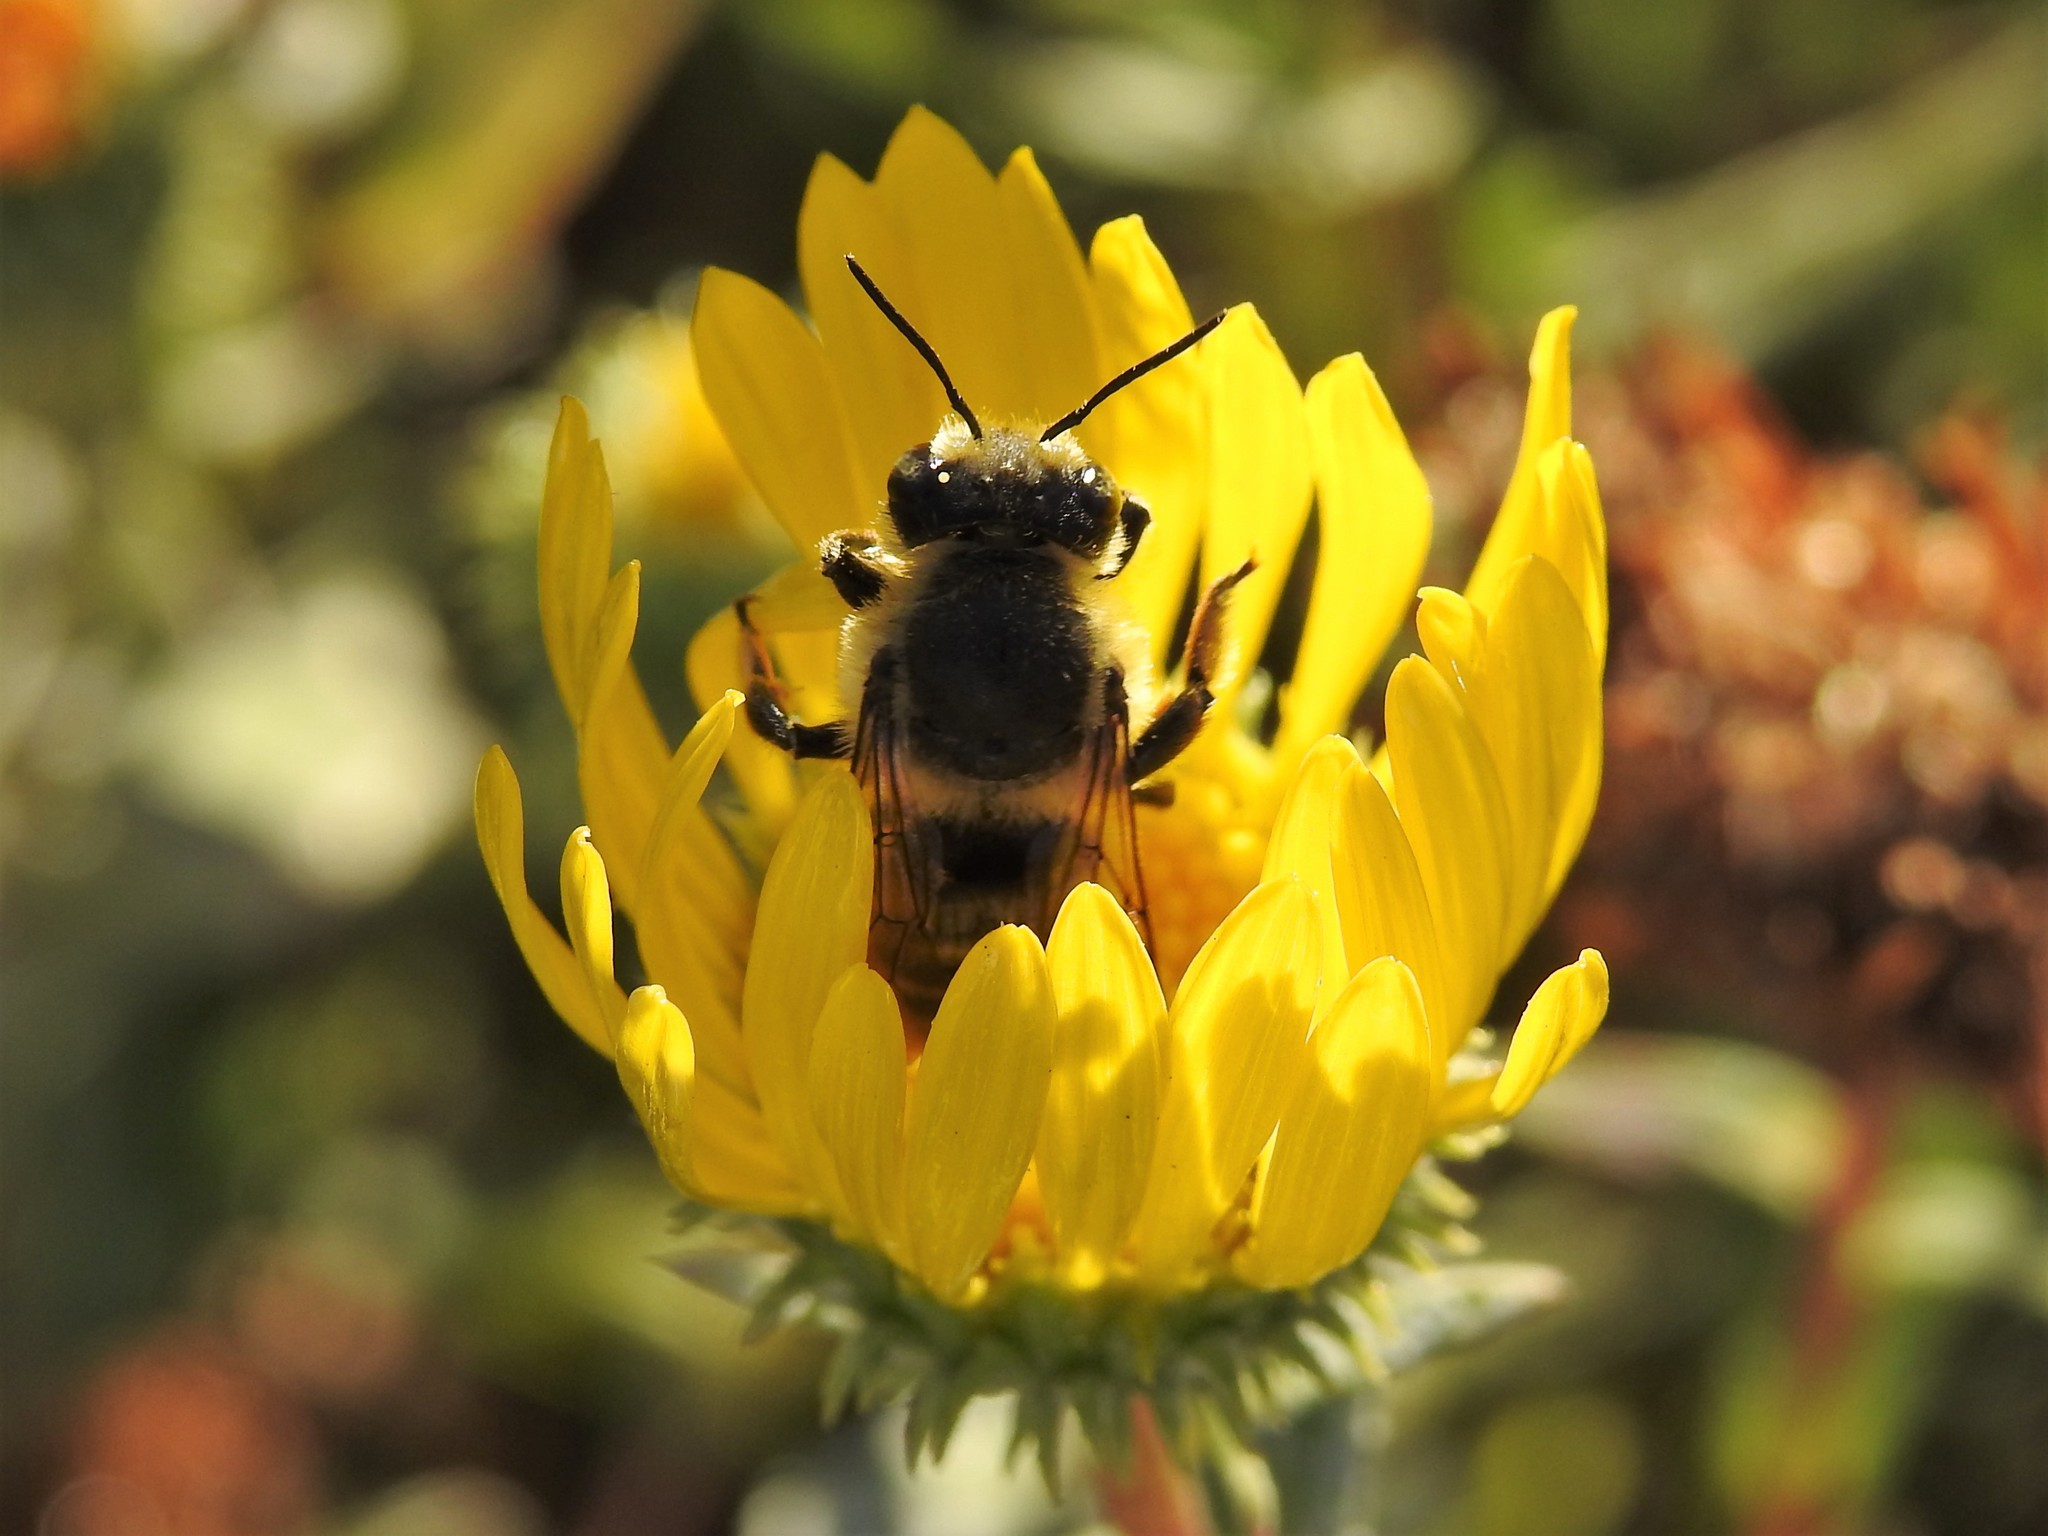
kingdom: Animalia
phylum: Arthropoda
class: Insecta
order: Hymenoptera
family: Megachilidae
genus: Megachile
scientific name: Megachile perihirta
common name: Western leafcutter
